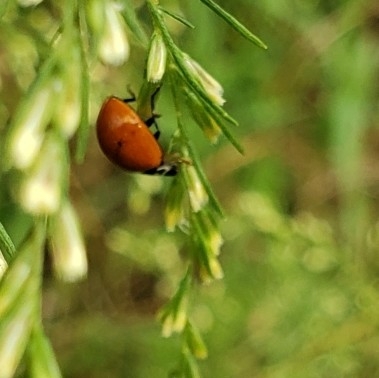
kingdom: Animalia
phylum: Arthropoda
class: Insecta
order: Coleoptera
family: Coccinellidae
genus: Cycloneda
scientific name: Cycloneda sanguinea
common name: Ladybird beetle
